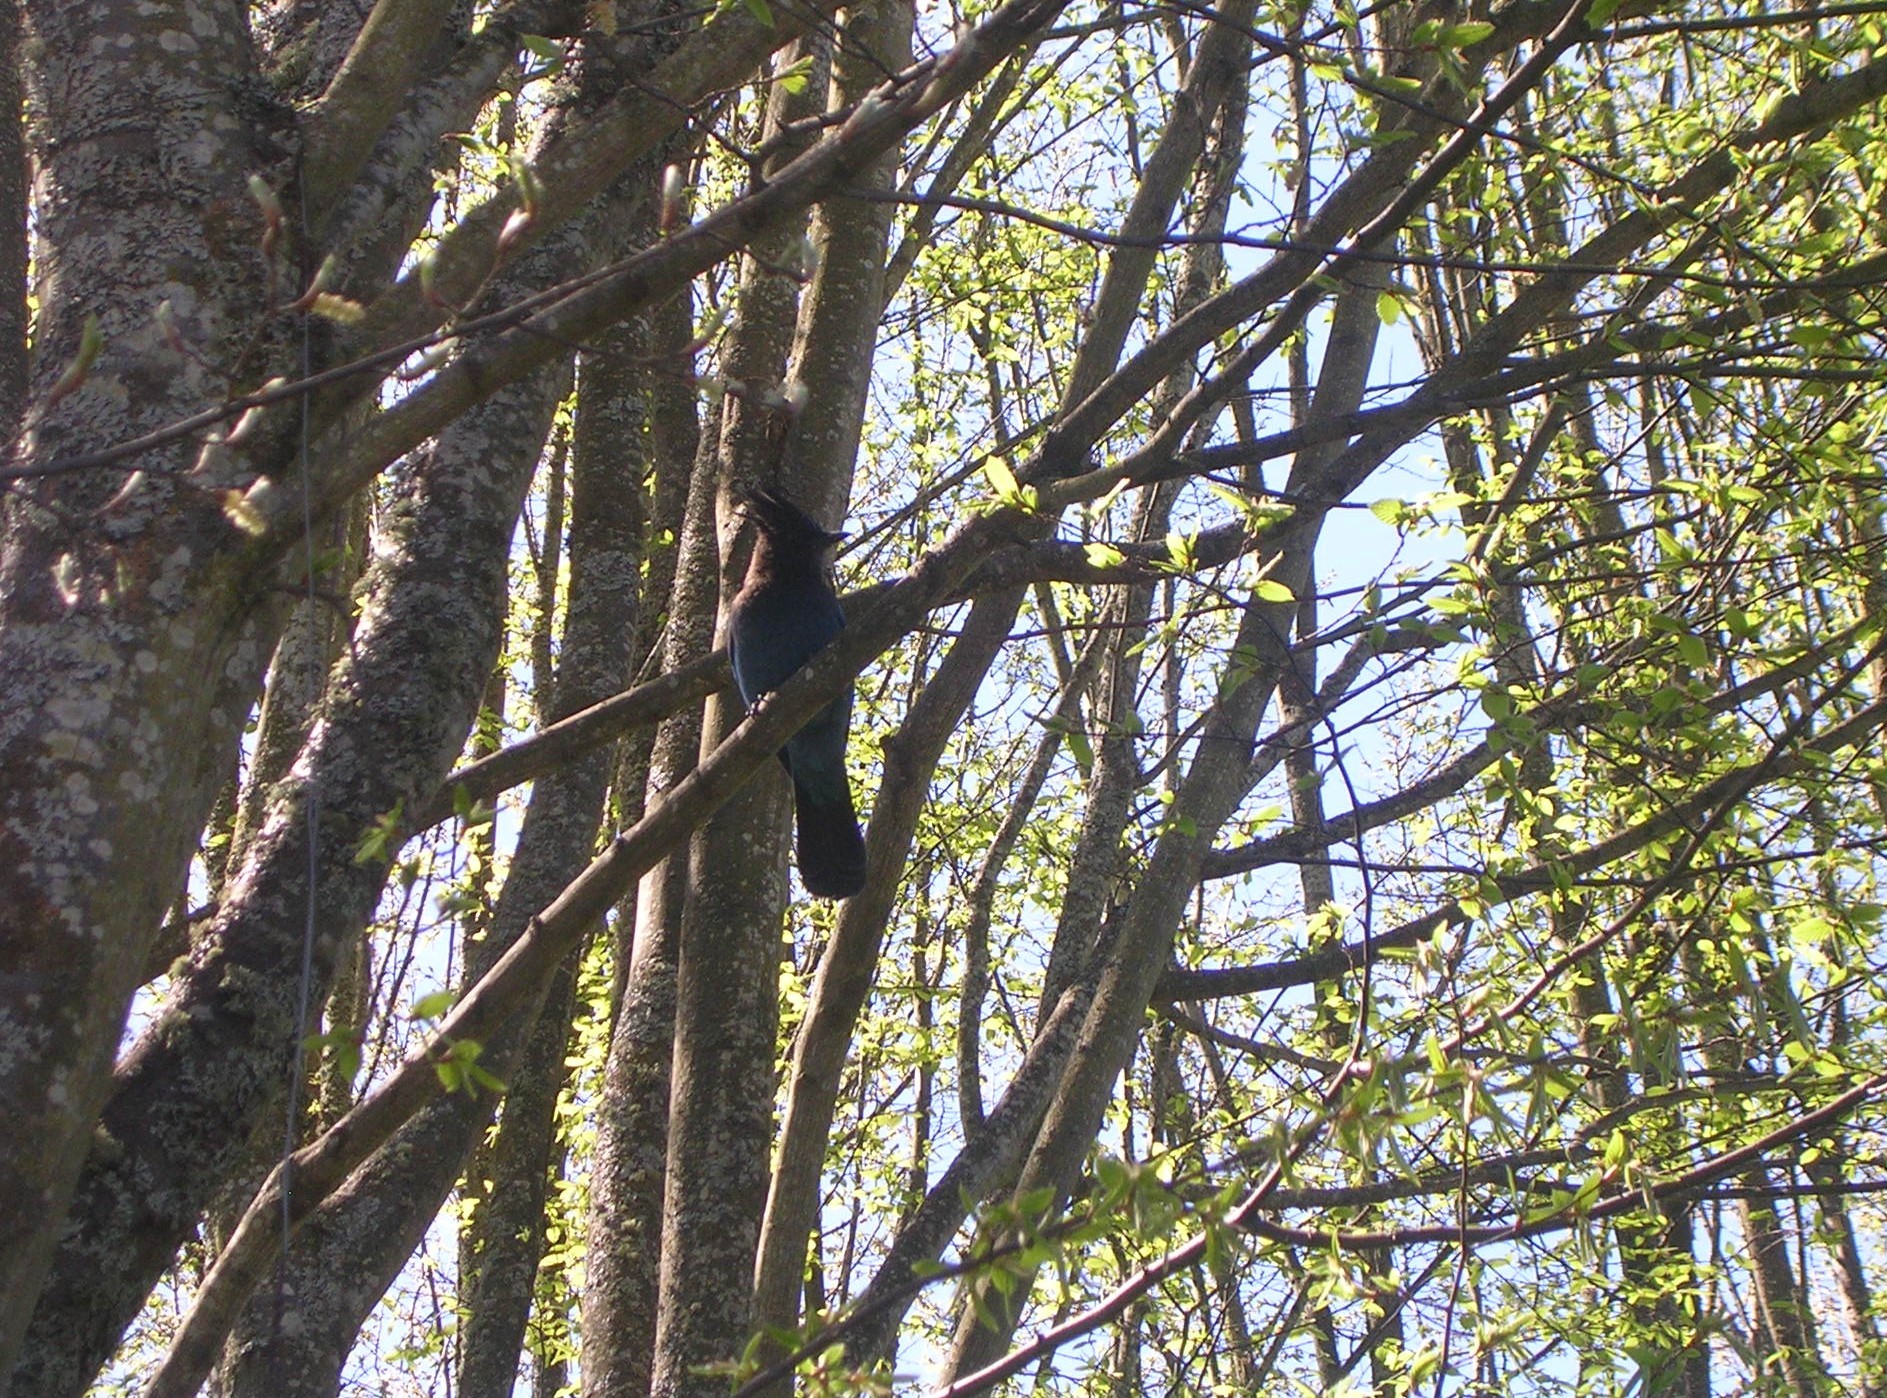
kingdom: Animalia
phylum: Chordata
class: Aves
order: Passeriformes
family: Corvidae
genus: Cyanocitta
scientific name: Cyanocitta stelleri
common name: Steller's jay
